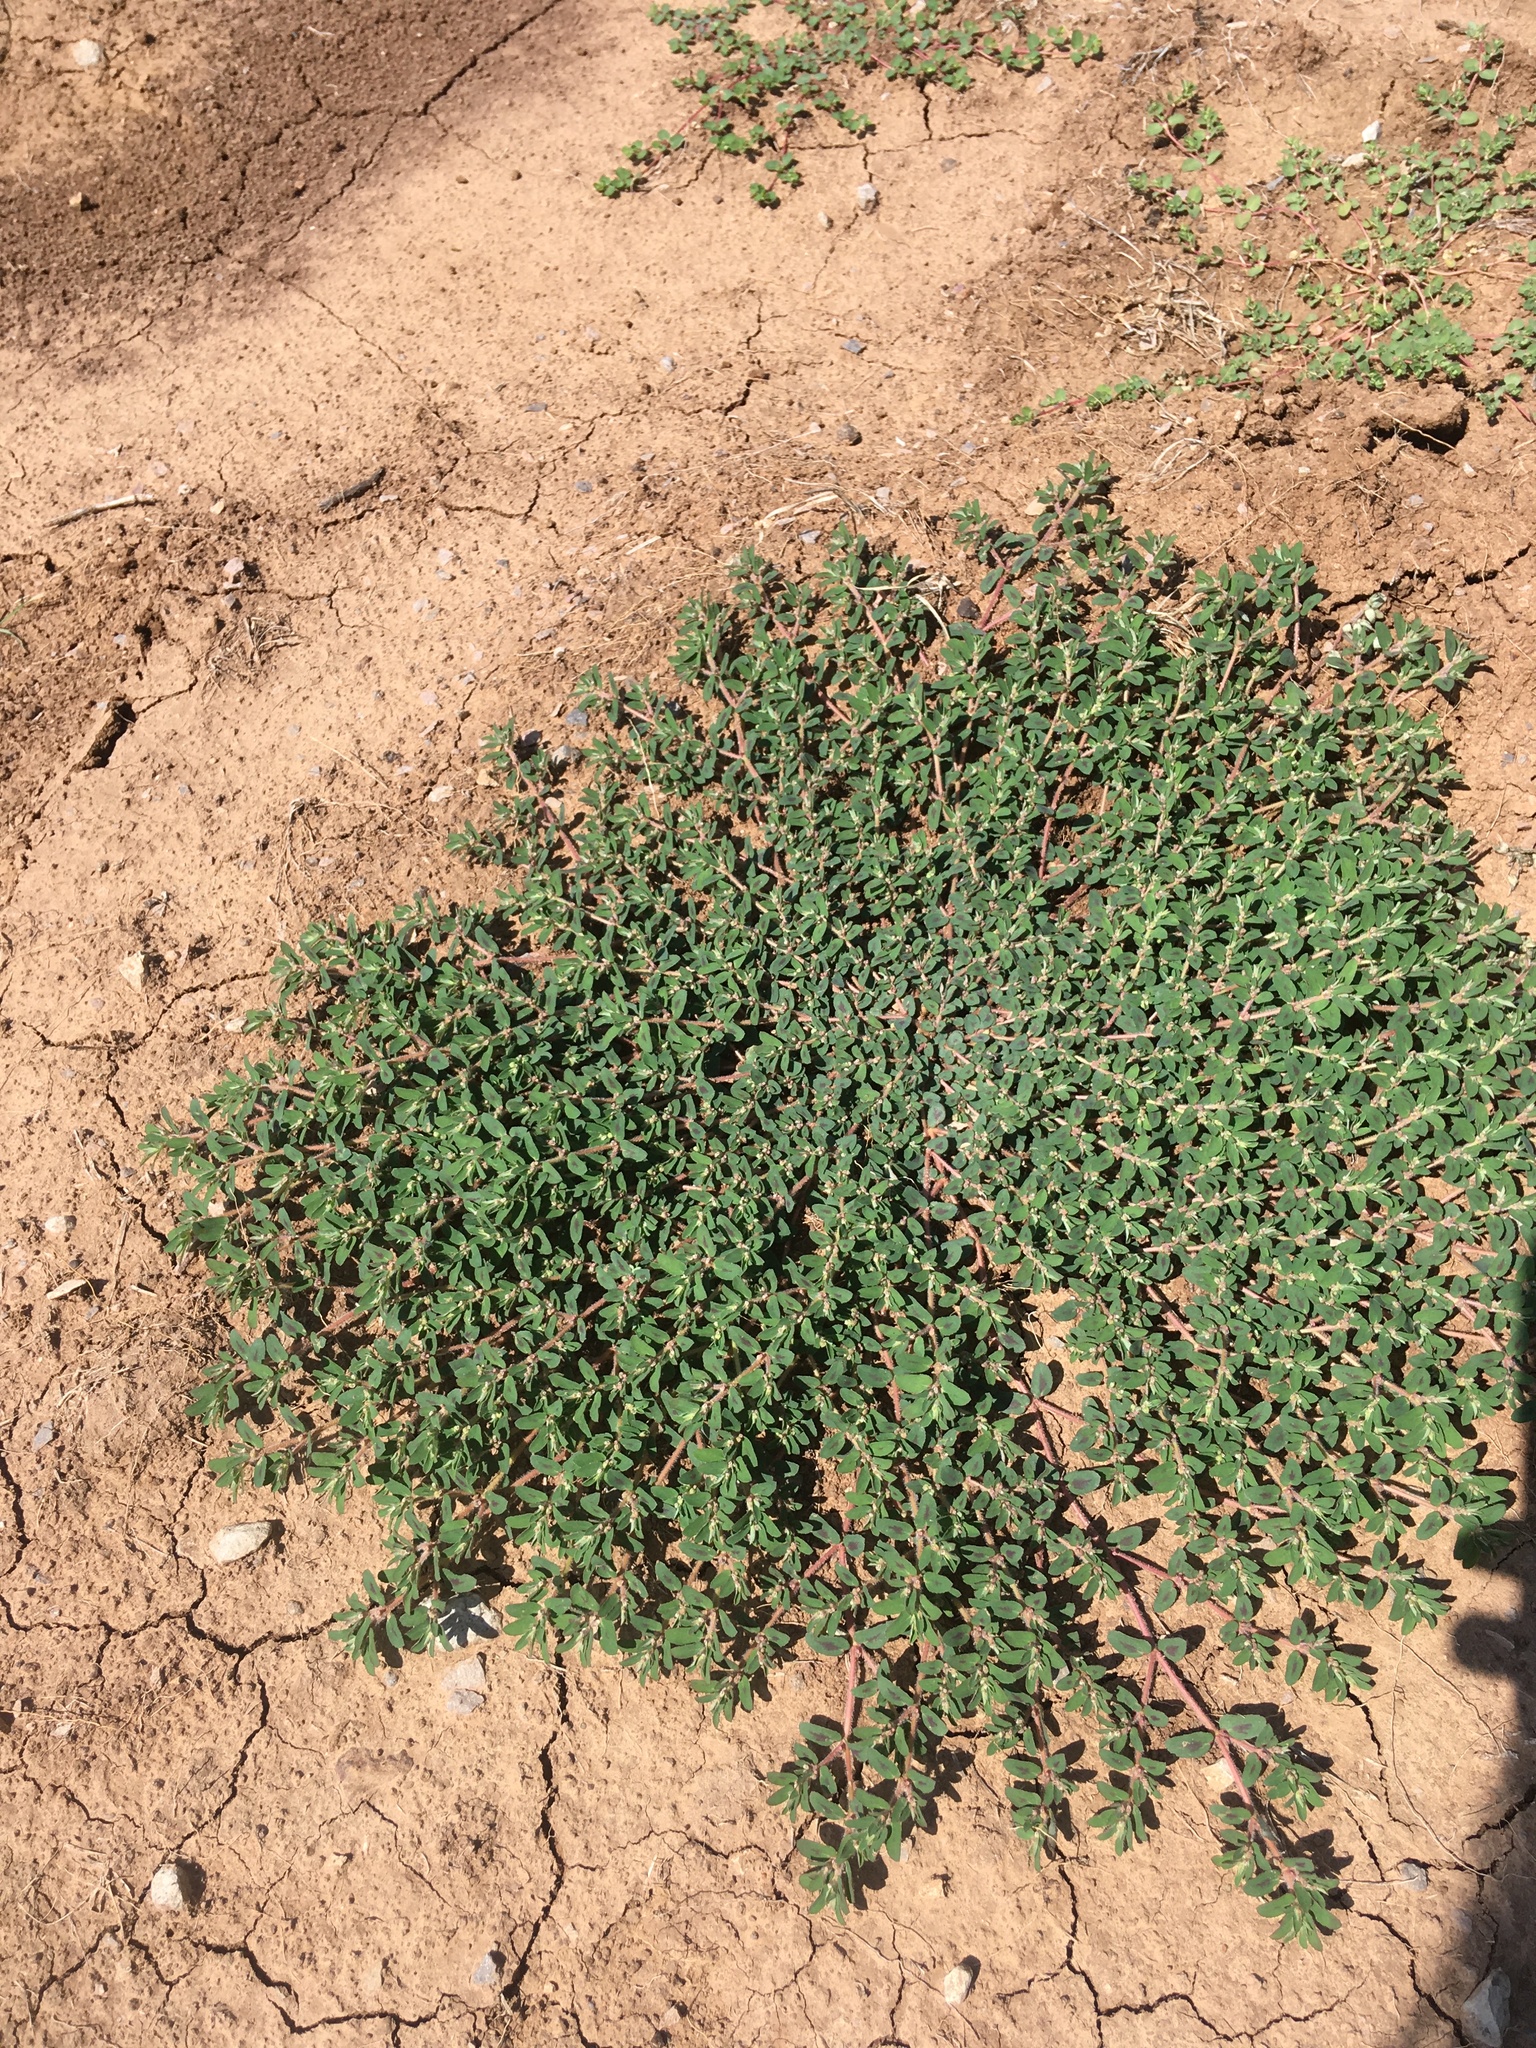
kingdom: Plantae
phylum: Tracheophyta
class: Magnoliopsida
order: Malpighiales
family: Euphorbiaceae
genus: Euphorbia
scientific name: Euphorbia maculata
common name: Spotted spurge
